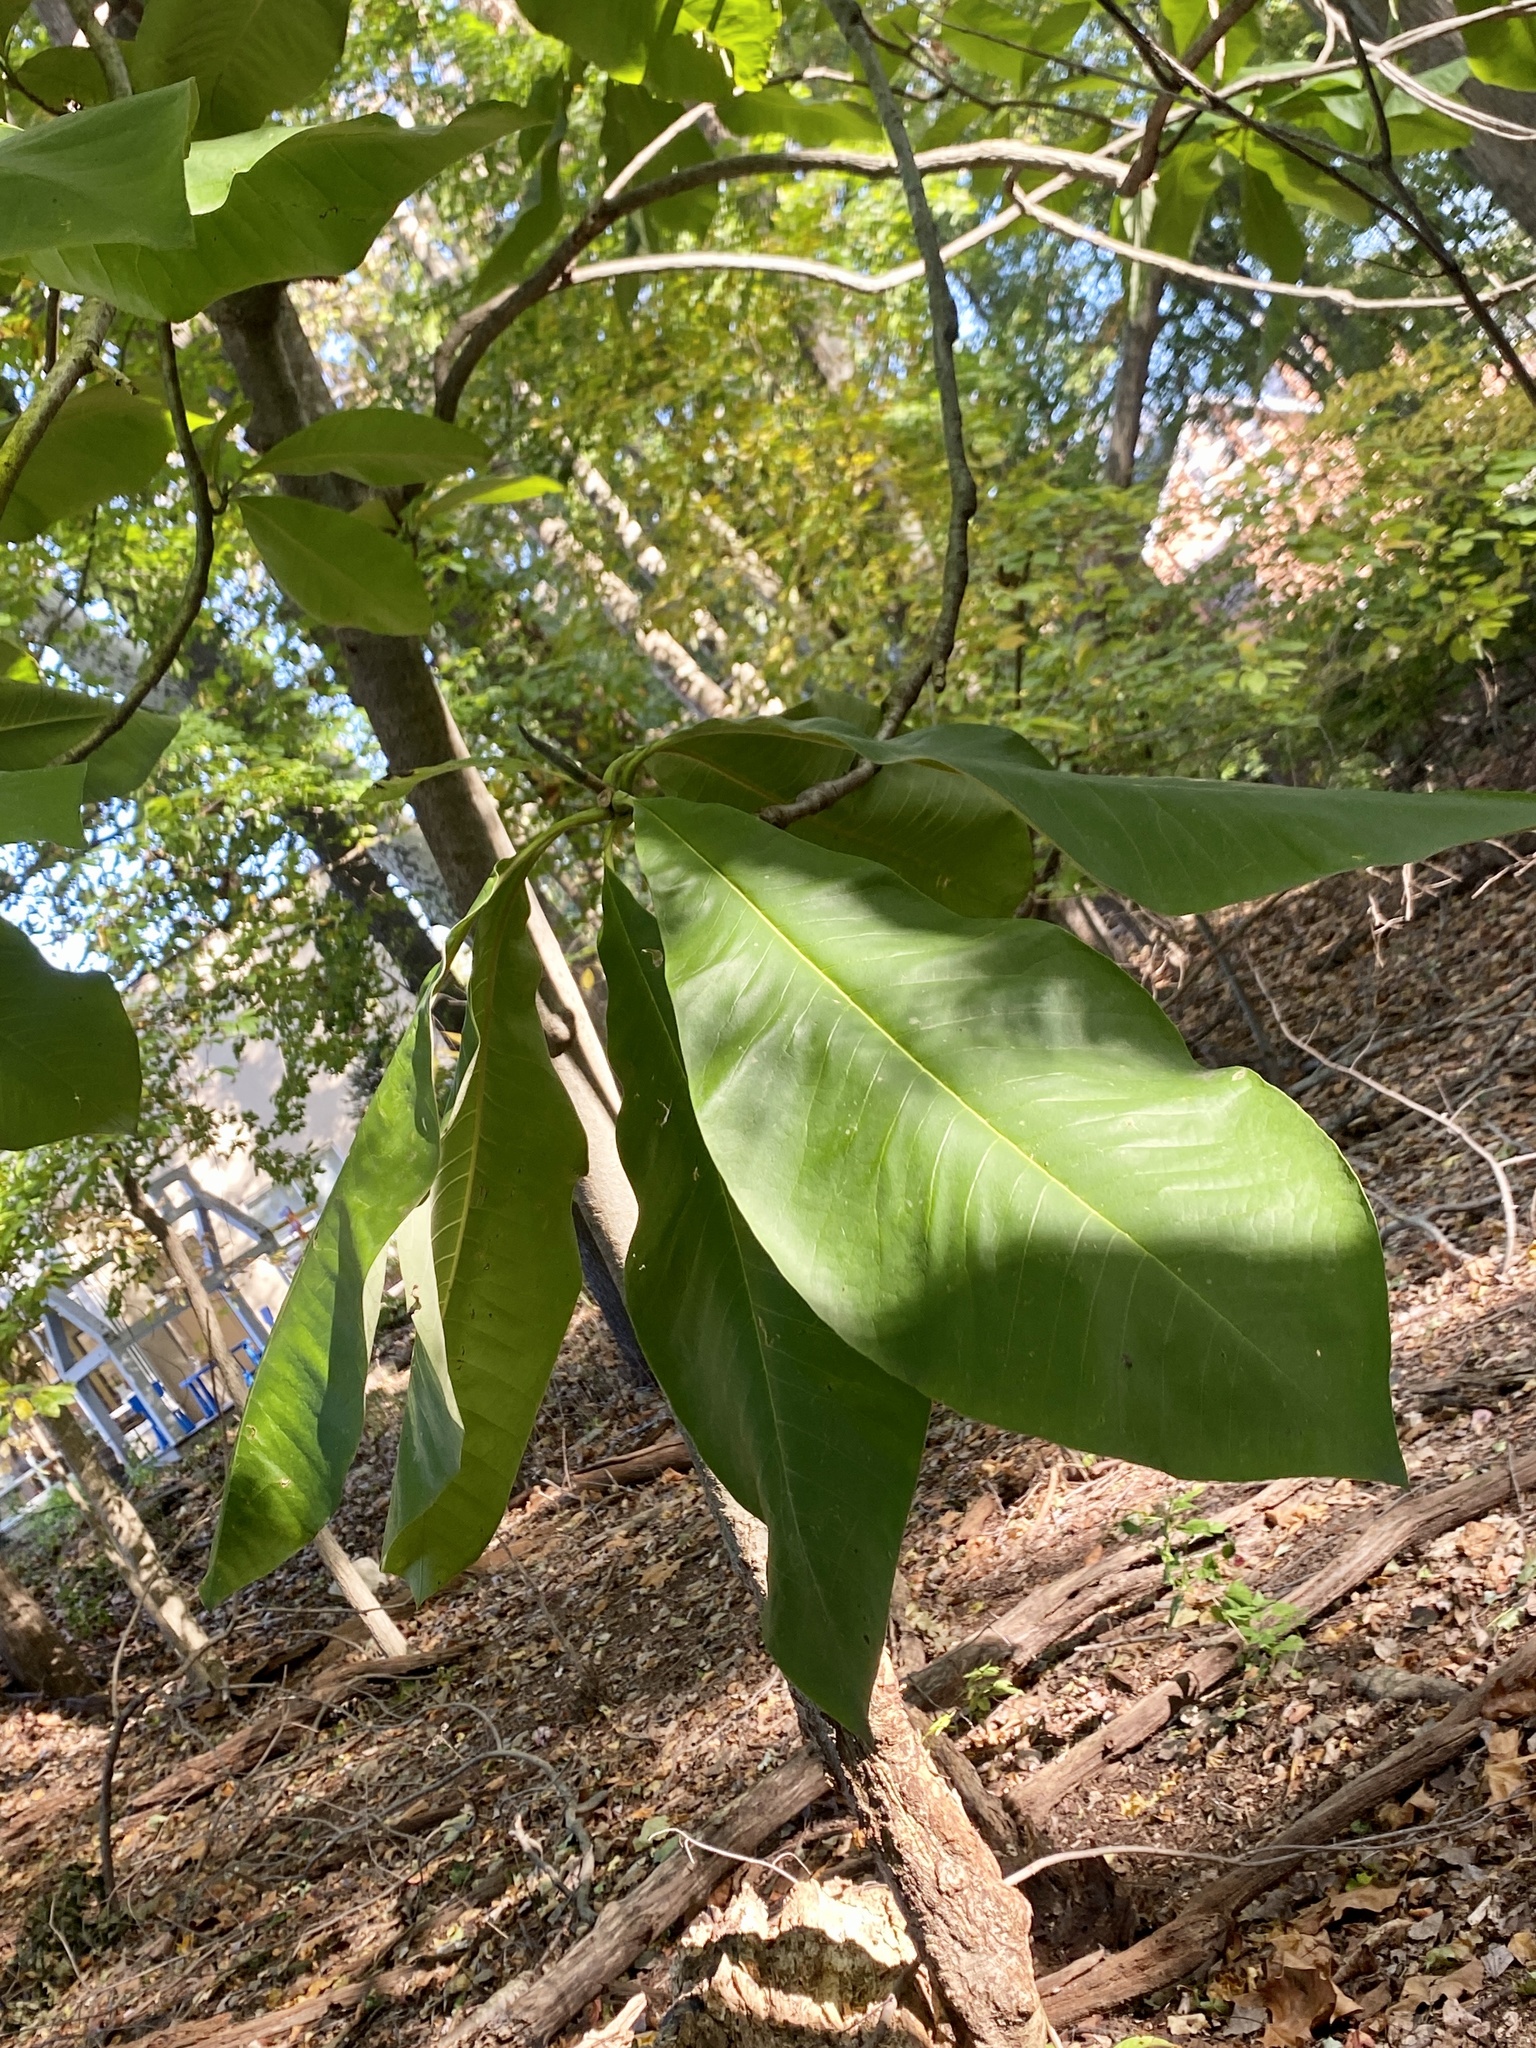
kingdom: Plantae
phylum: Tracheophyta
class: Magnoliopsida
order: Magnoliales
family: Magnoliaceae
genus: Magnolia
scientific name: Magnolia tripetala
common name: Umbrella magnolia
